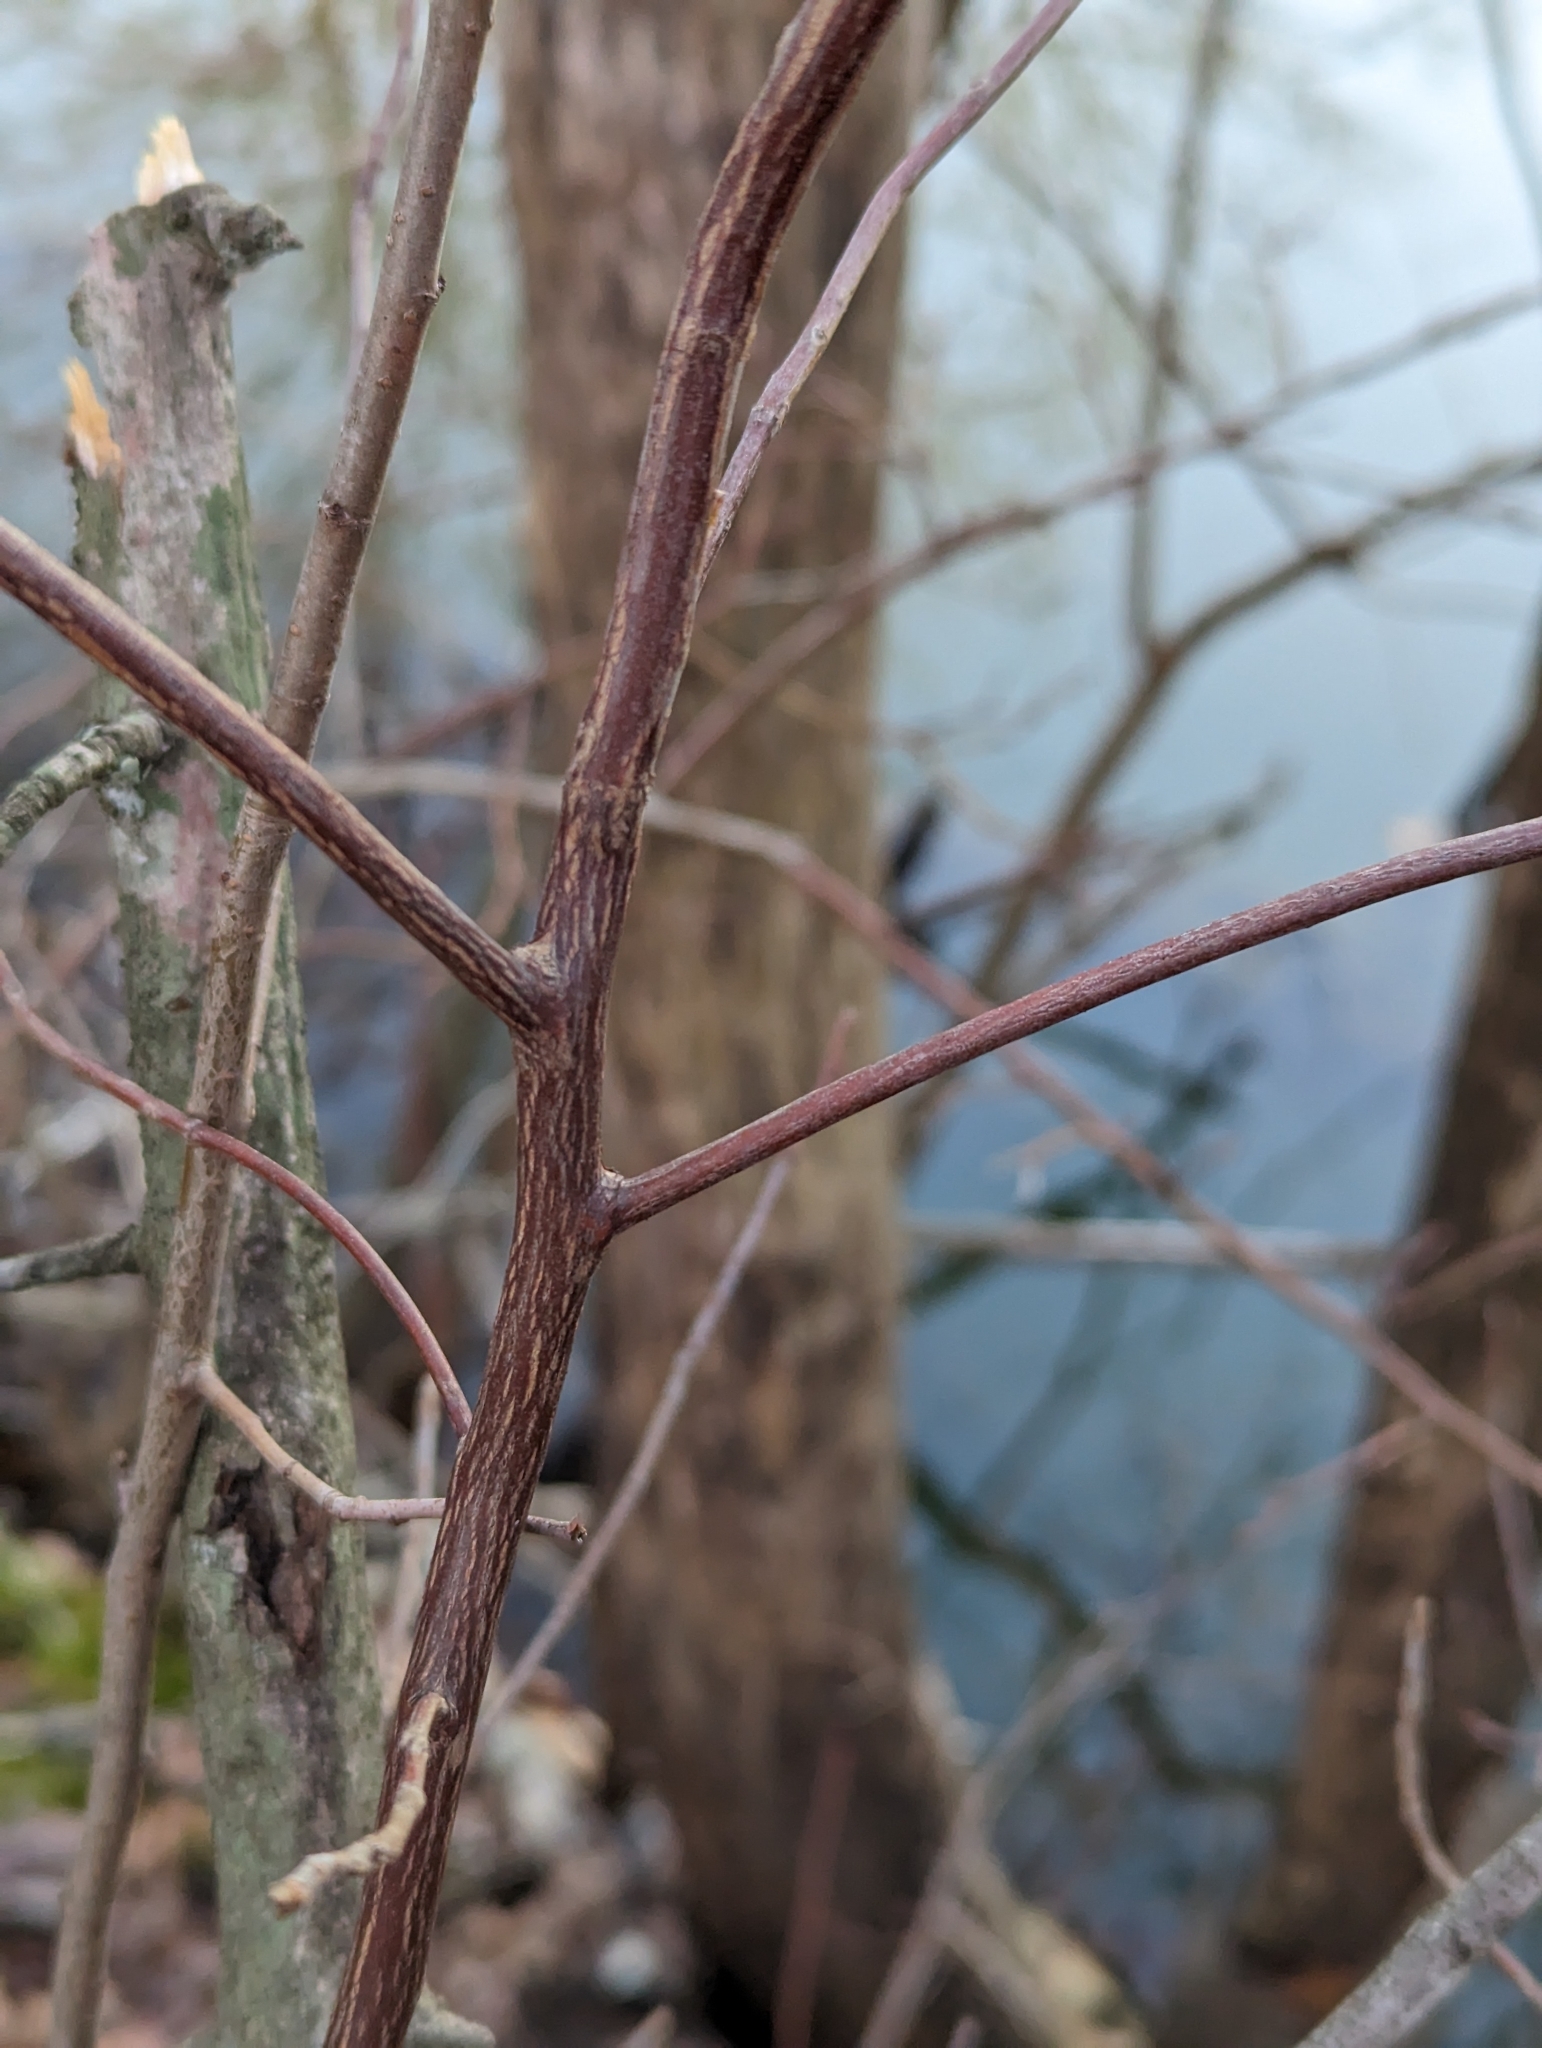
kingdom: Plantae
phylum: Tracheophyta
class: Magnoliopsida
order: Ericales
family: Clethraceae
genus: Clethra
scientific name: Clethra alnifolia
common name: Sweet pepperbush
